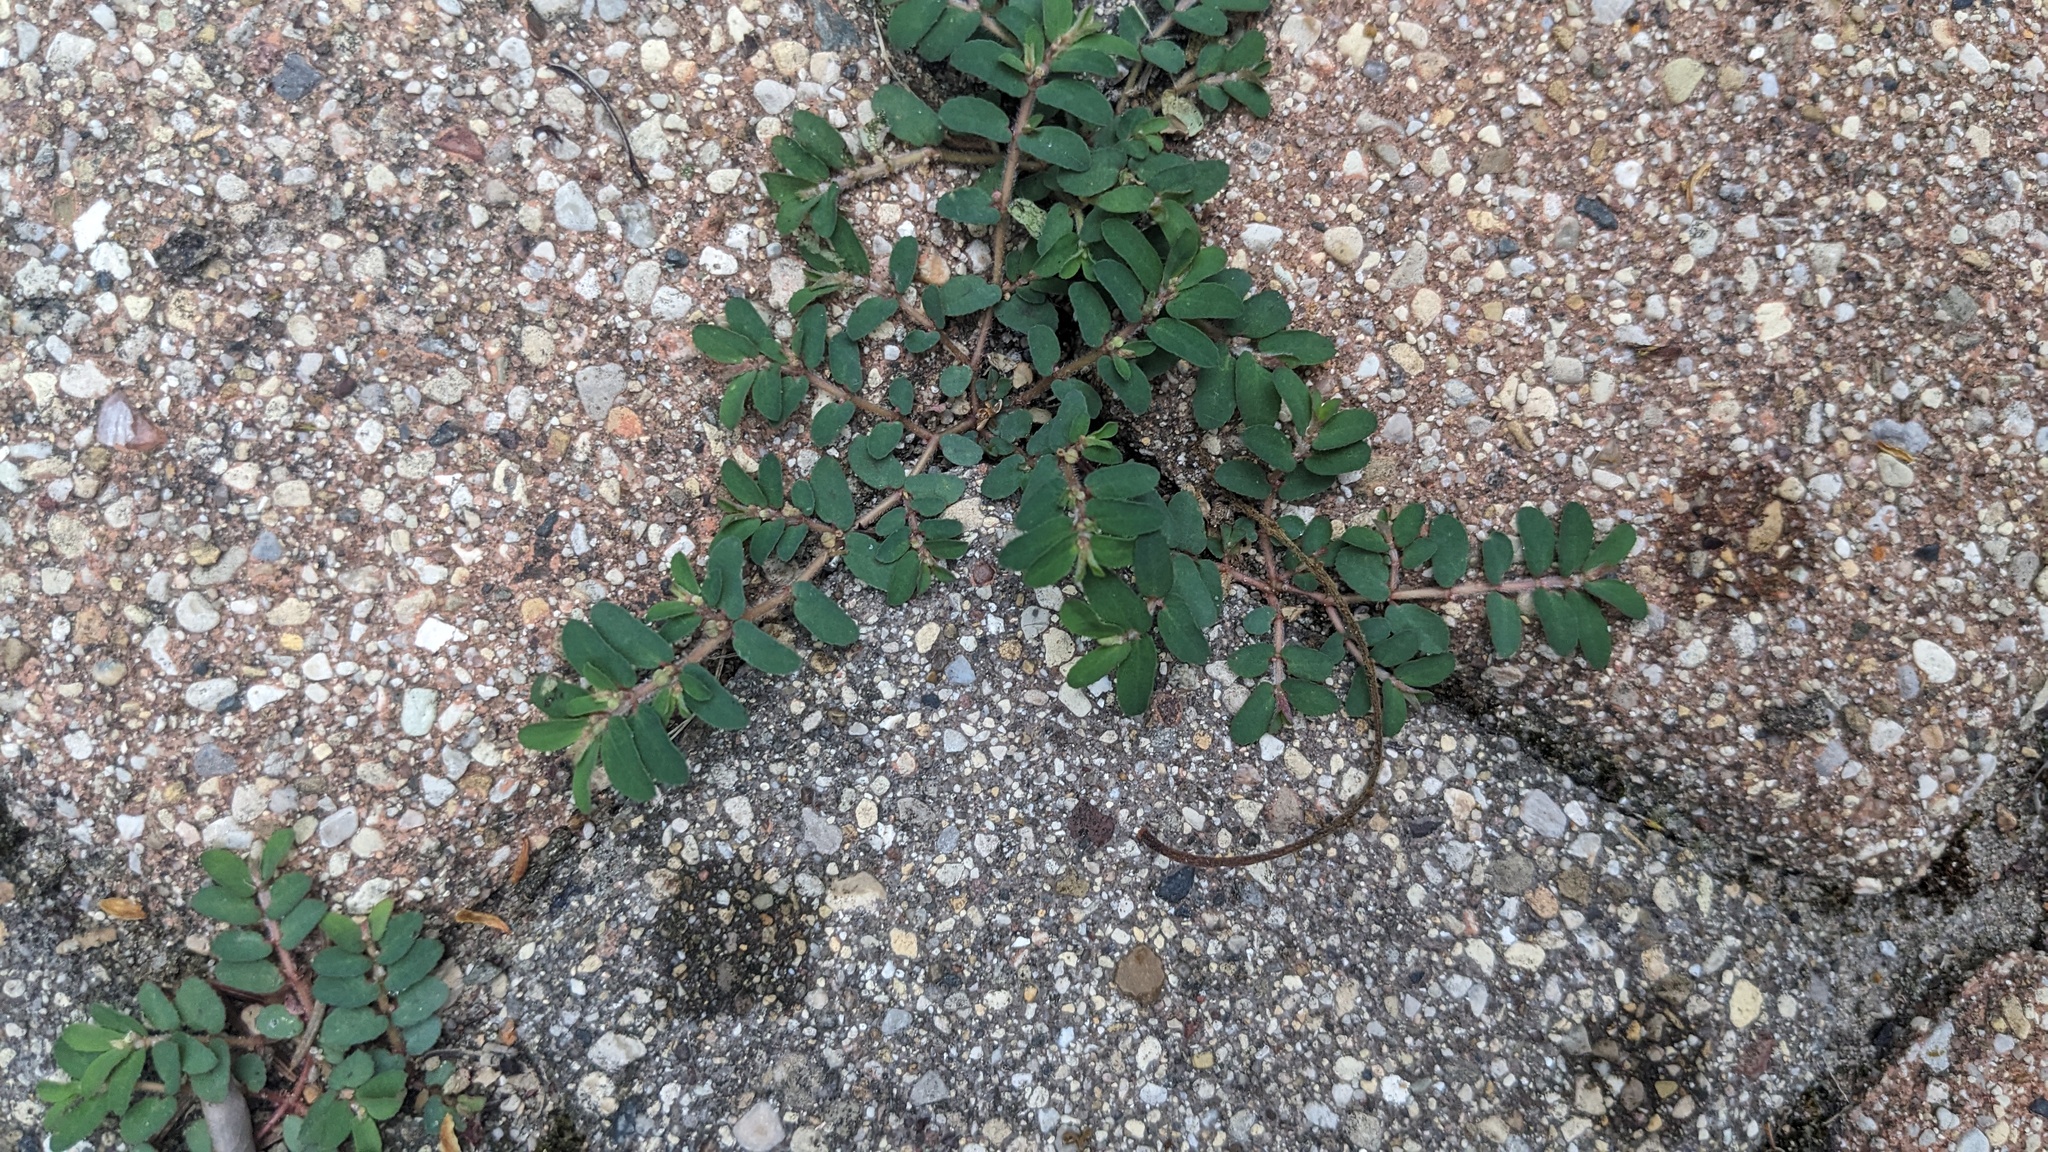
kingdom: Plantae
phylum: Tracheophyta
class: Magnoliopsida
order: Malpighiales
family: Euphorbiaceae
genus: Euphorbia
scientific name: Euphorbia maculata
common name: Spotted spurge
